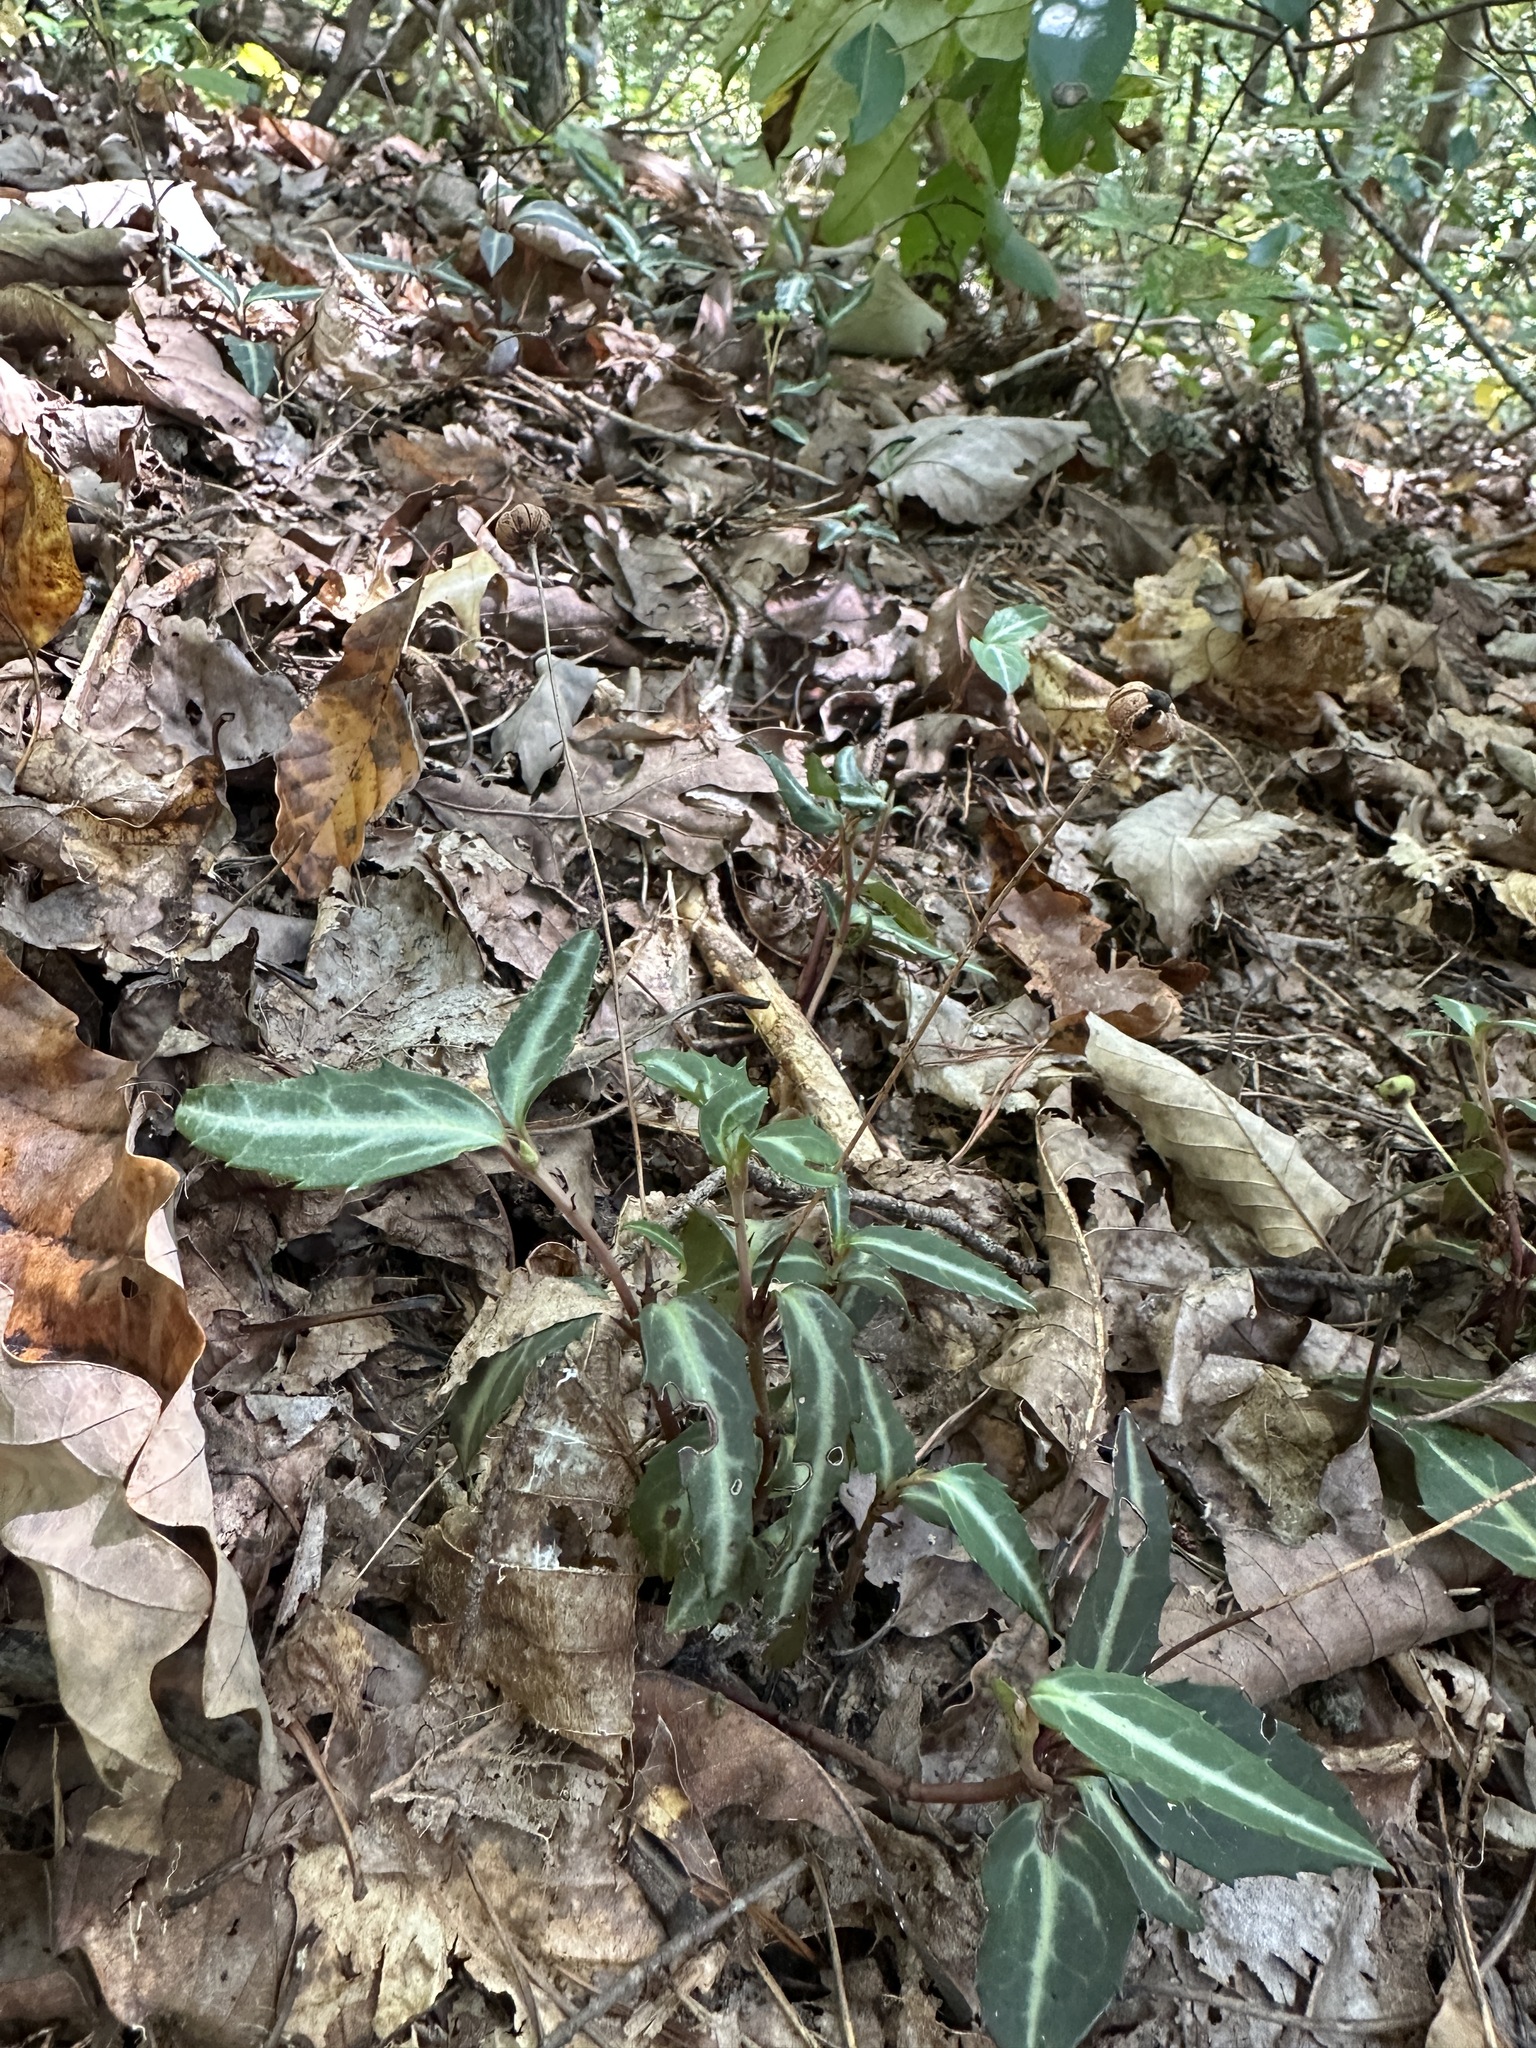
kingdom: Plantae
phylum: Tracheophyta
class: Magnoliopsida
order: Ericales
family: Ericaceae
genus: Chimaphila
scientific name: Chimaphila maculata
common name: Spotted pipsissewa
